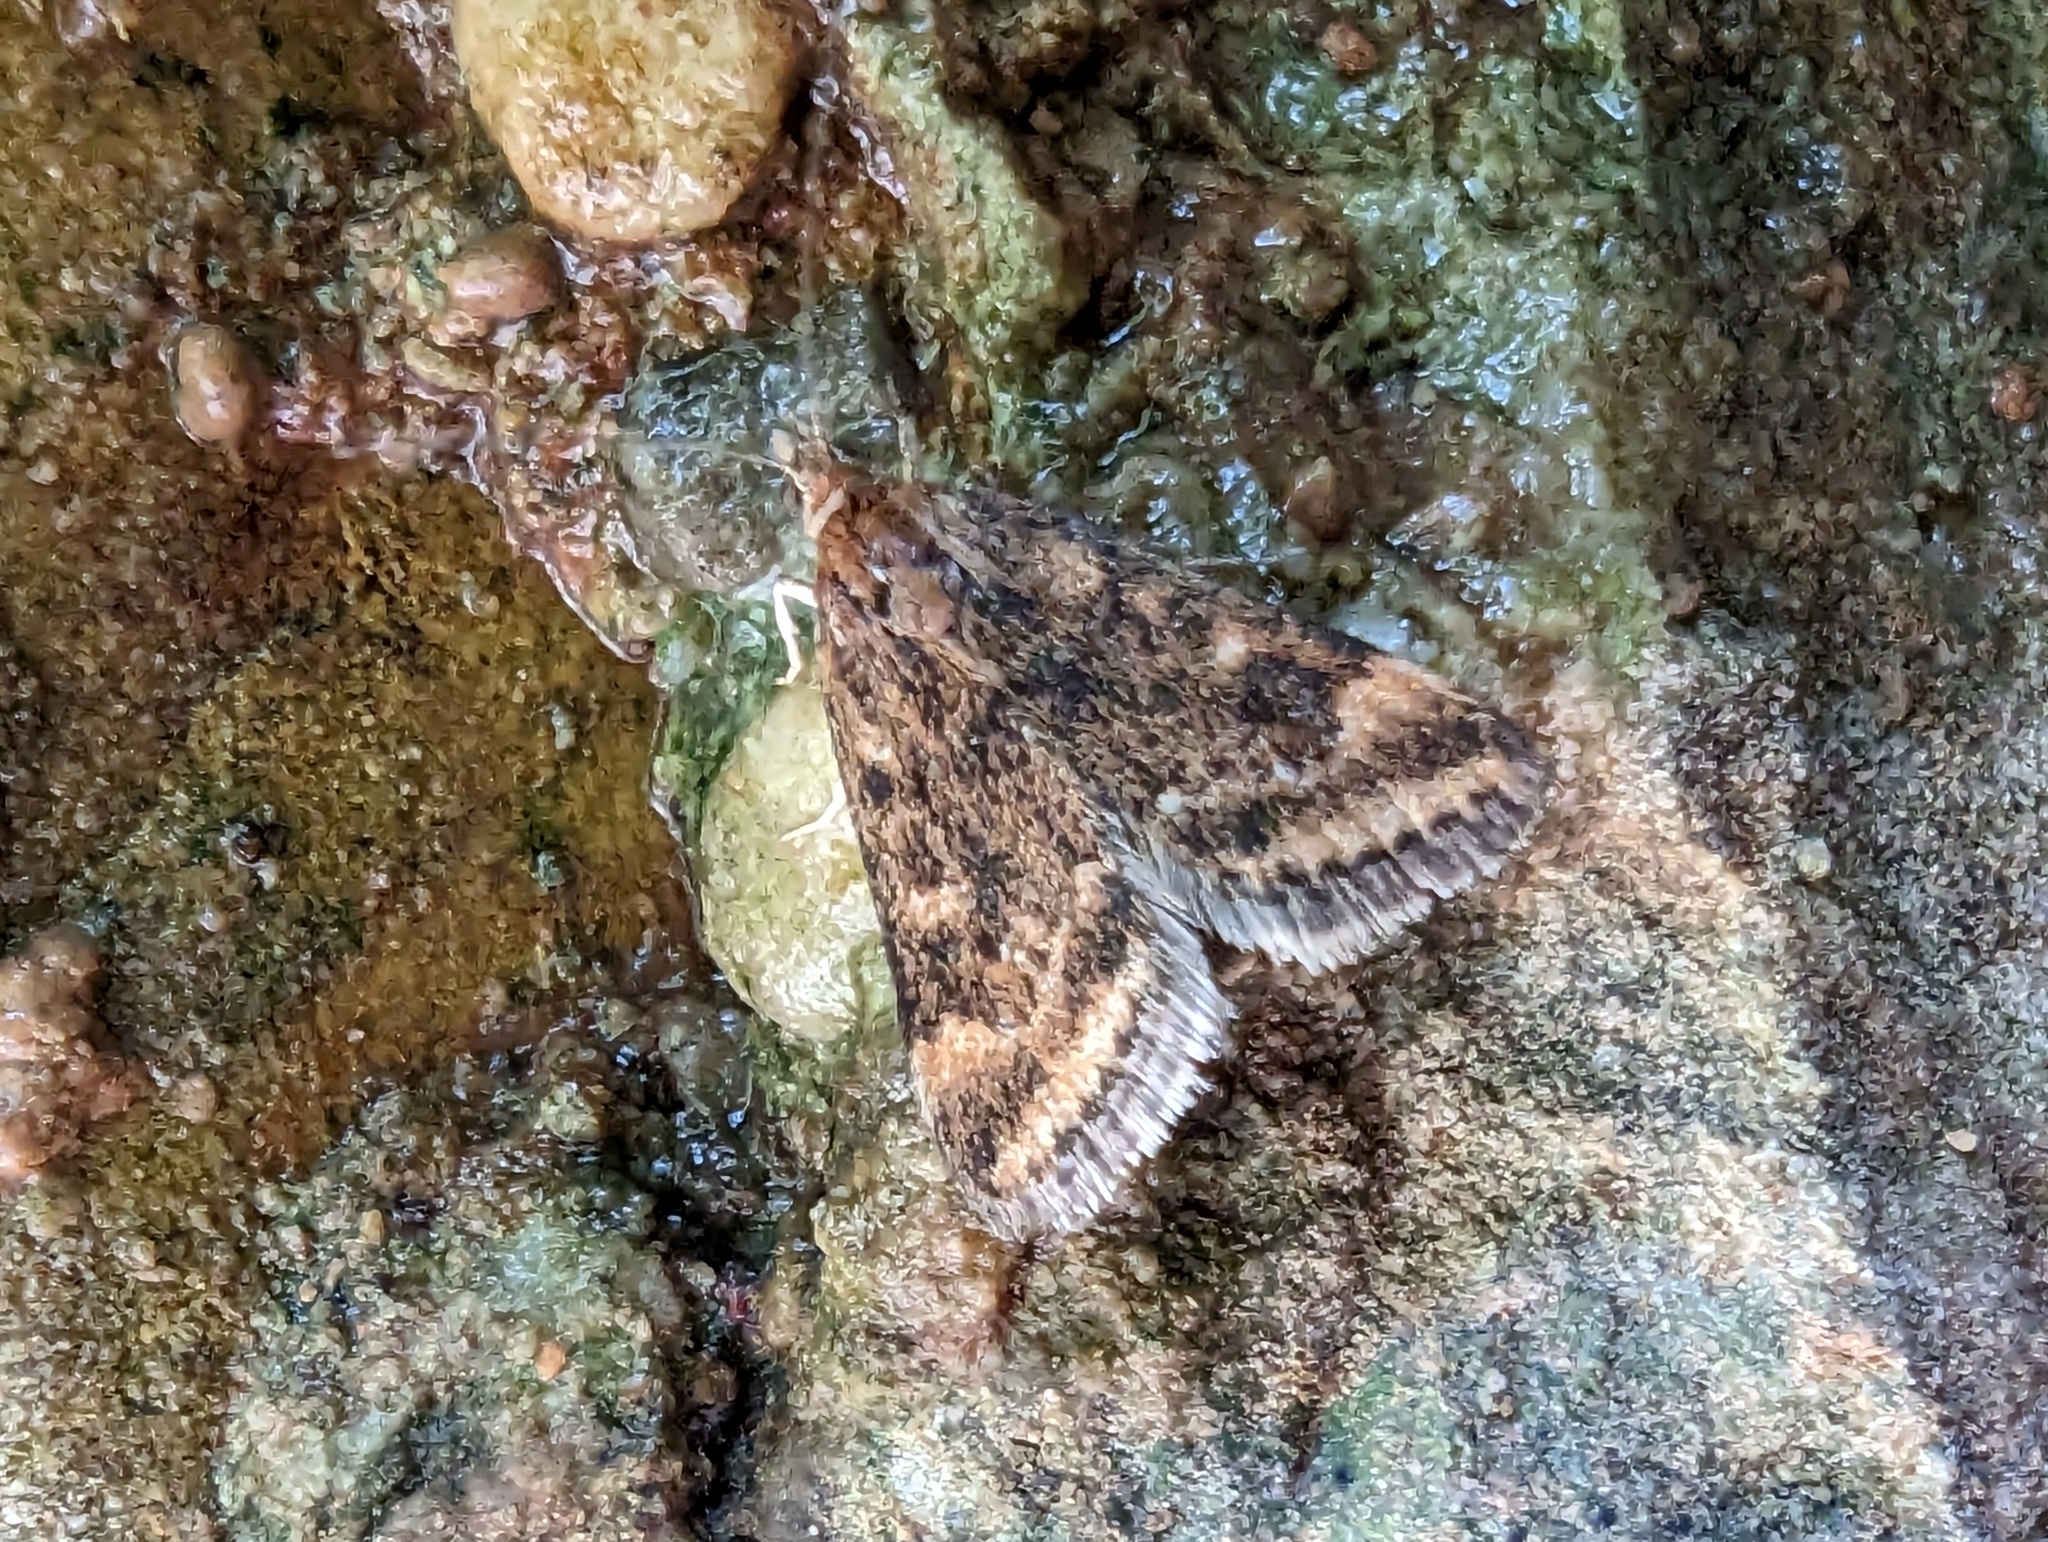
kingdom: Animalia
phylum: Arthropoda
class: Insecta
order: Lepidoptera
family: Crambidae
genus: Pyrausta
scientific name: Pyrausta despicata
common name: Straw-barred pearl
